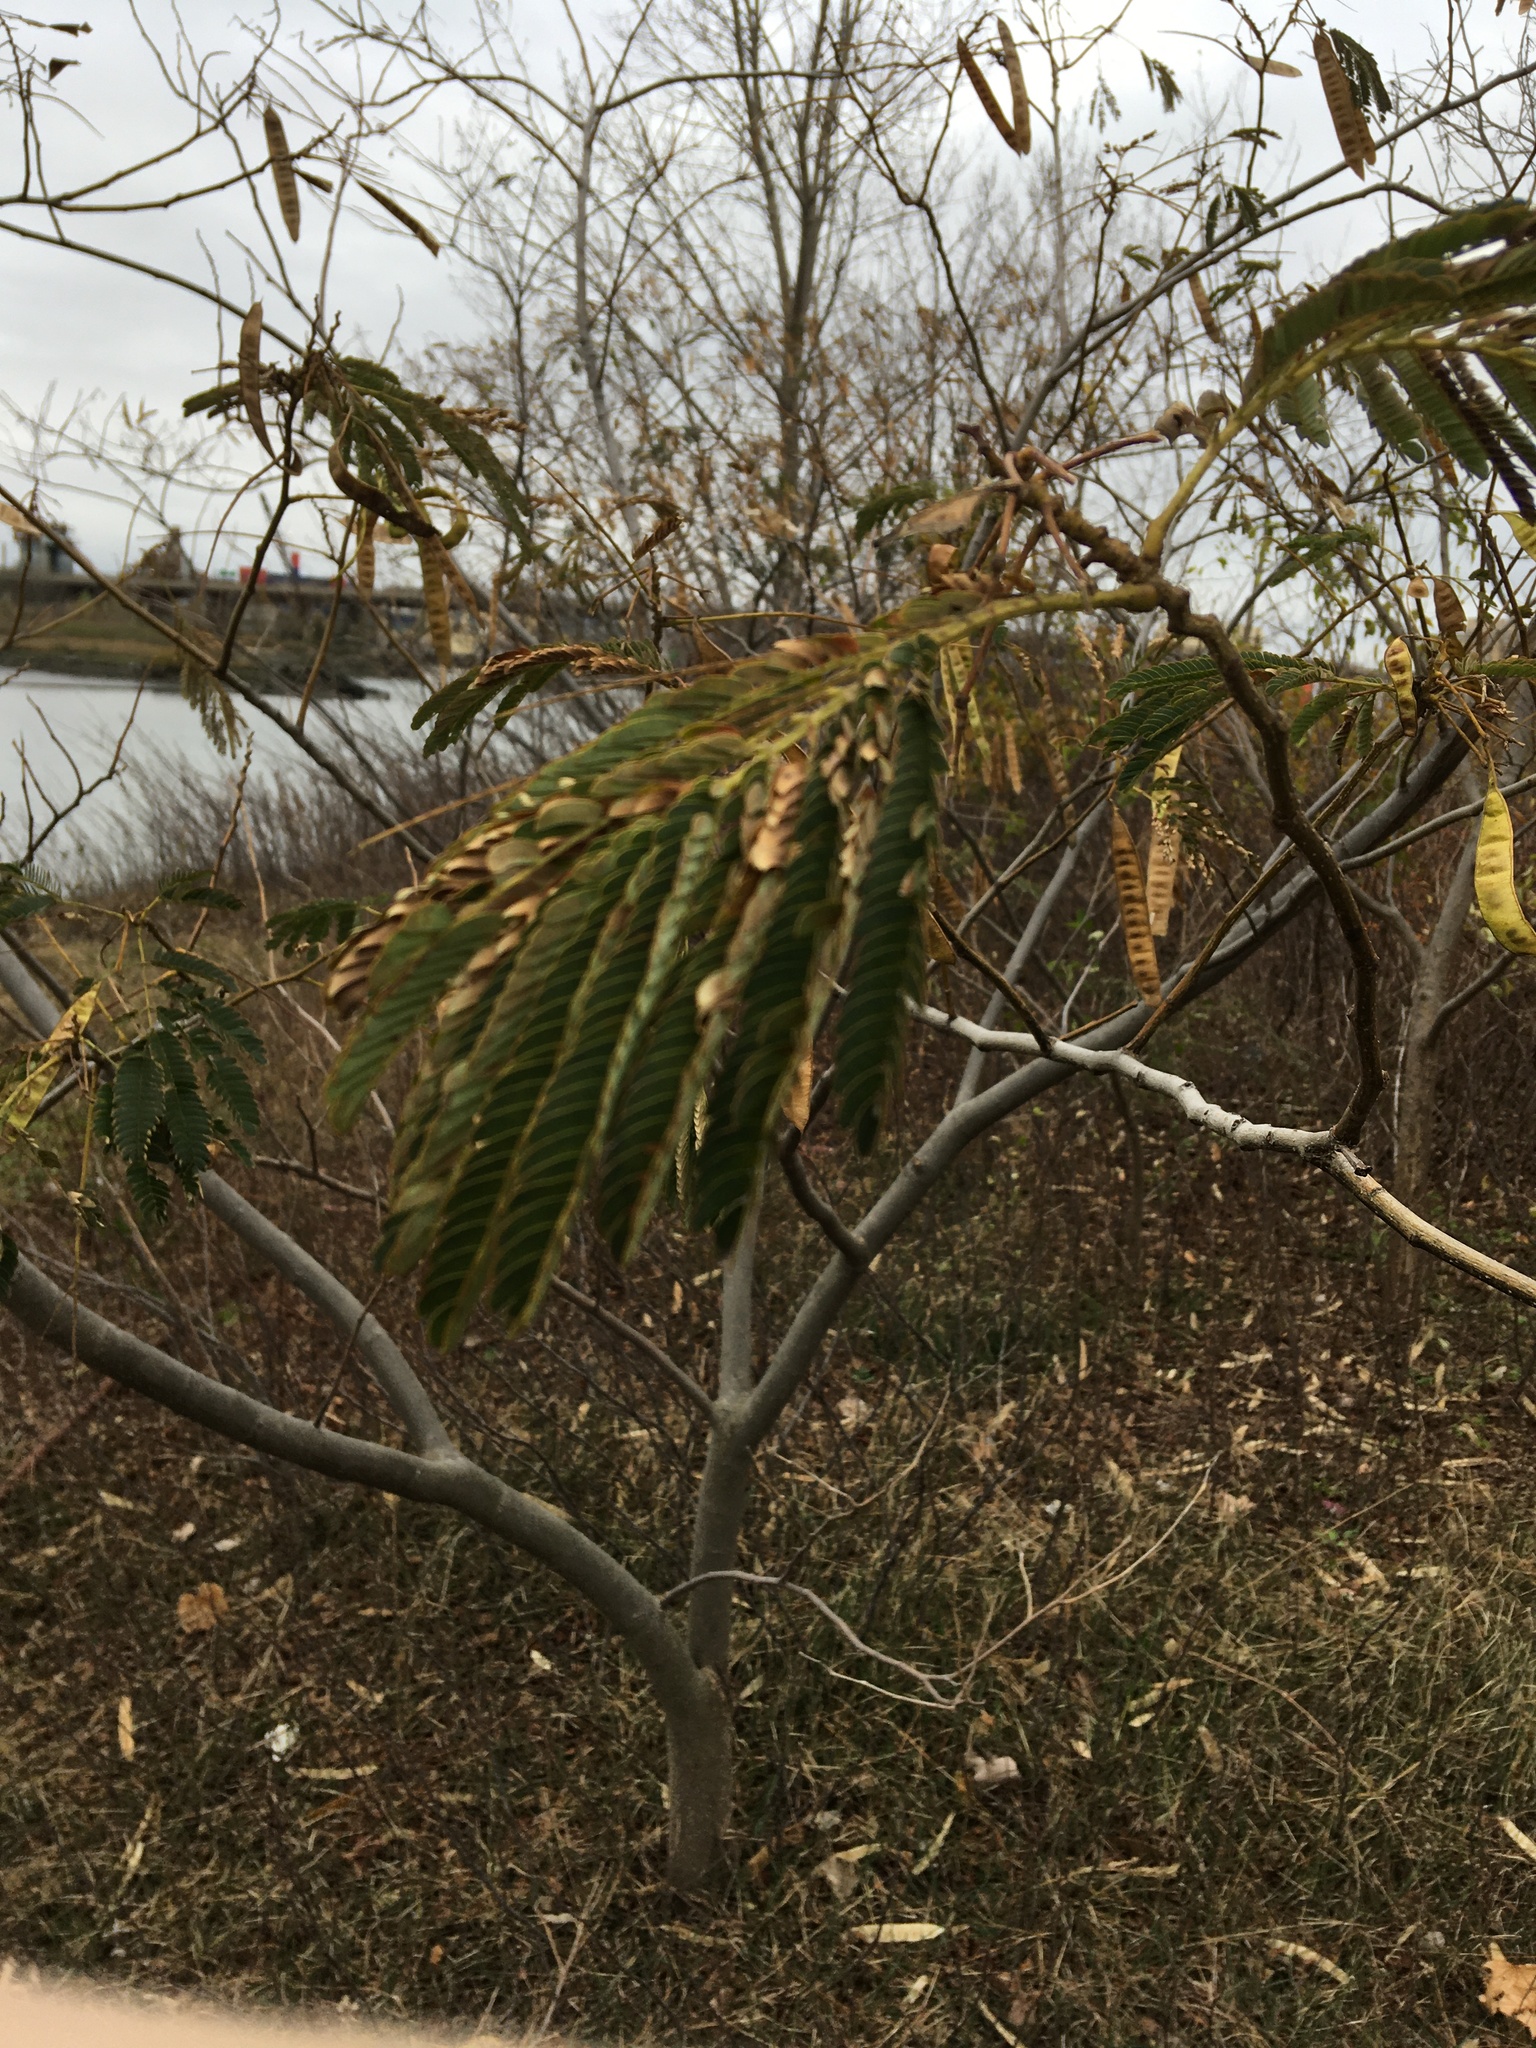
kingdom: Plantae
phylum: Tracheophyta
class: Magnoliopsida
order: Fabales
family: Fabaceae
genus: Albizia
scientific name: Albizia julibrissin
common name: Silktree
